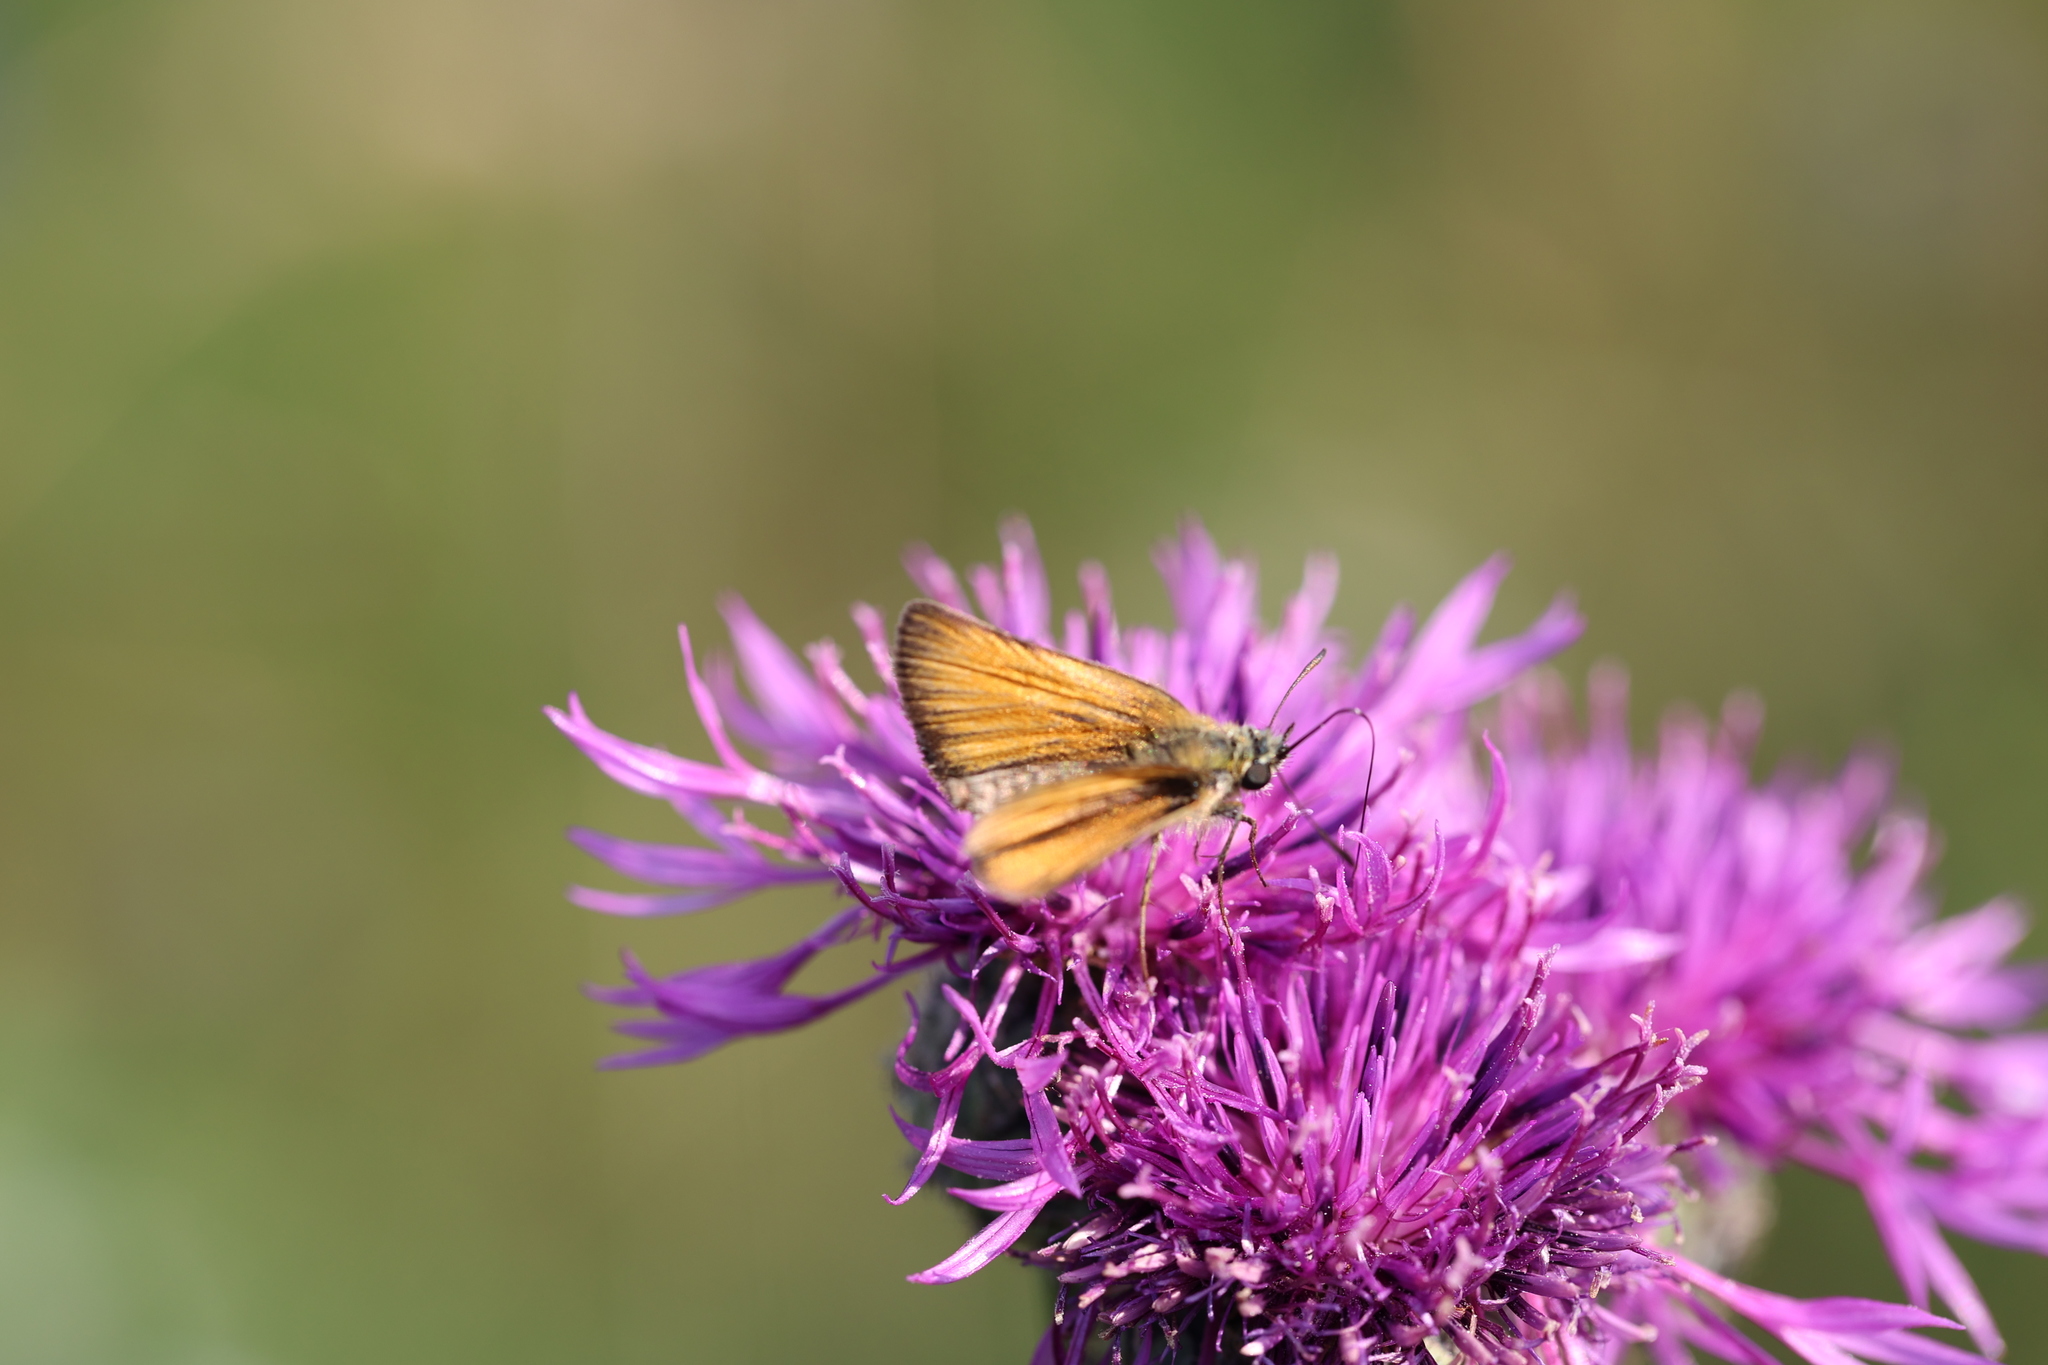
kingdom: Animalia
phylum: Arthropoda
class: Insecta
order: Lepidoptera
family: Hesperiidae
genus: Thymelicus
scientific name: Thymelicus lineola
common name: Essex skipper
